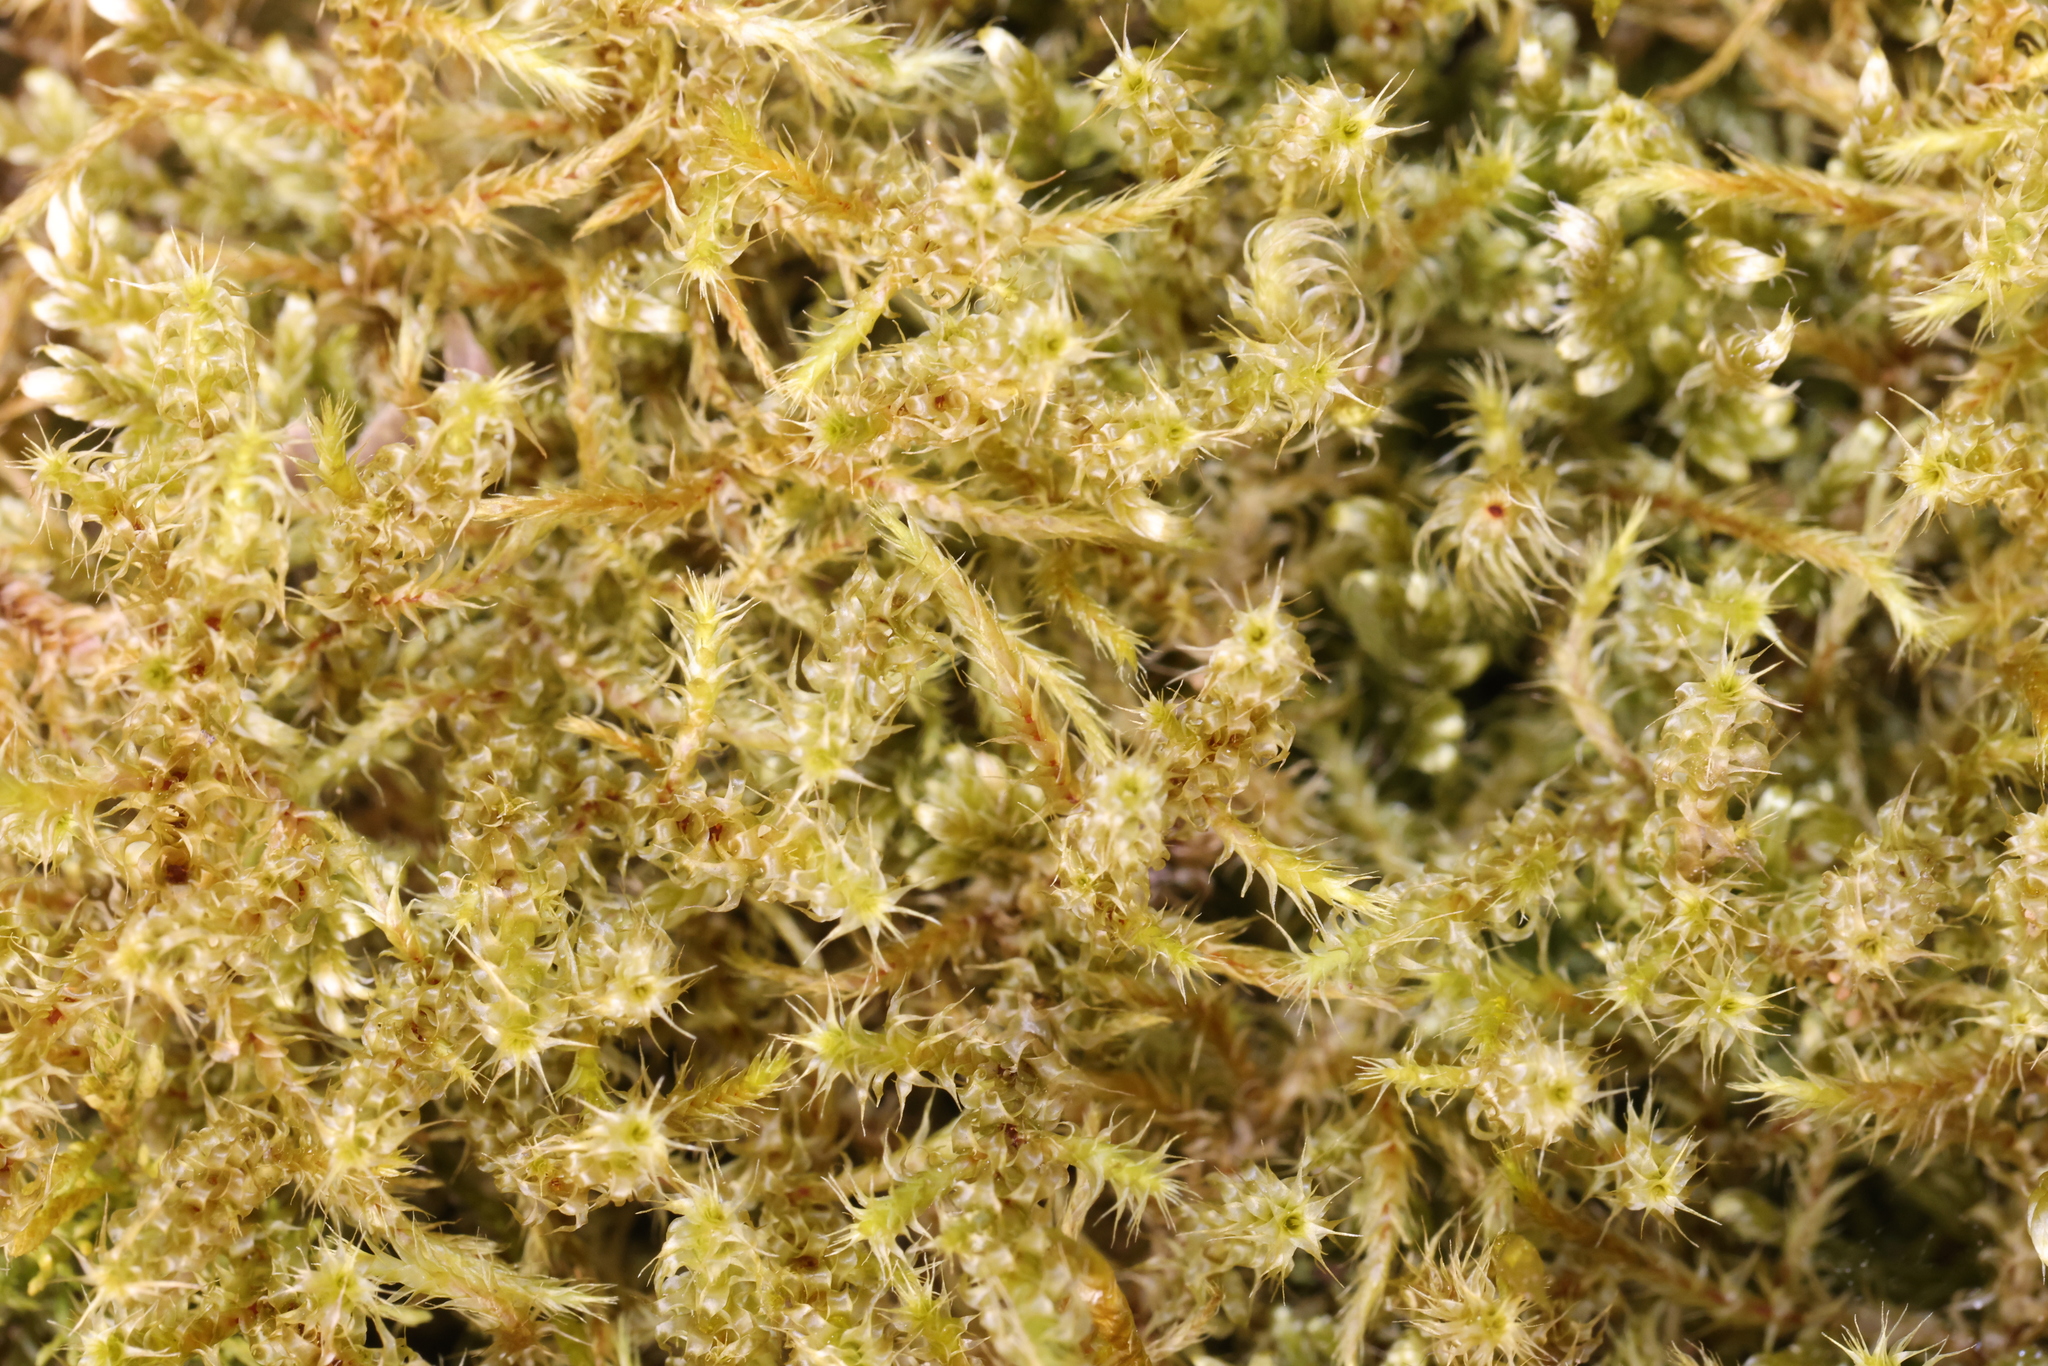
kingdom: Plantae
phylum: Bryophyta
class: Bryopsida
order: Hypnales
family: Hylocomiaceae
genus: Rhytidiadelphus
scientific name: Rhytidiadelphus squarrosus
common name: Springy turf-moss
